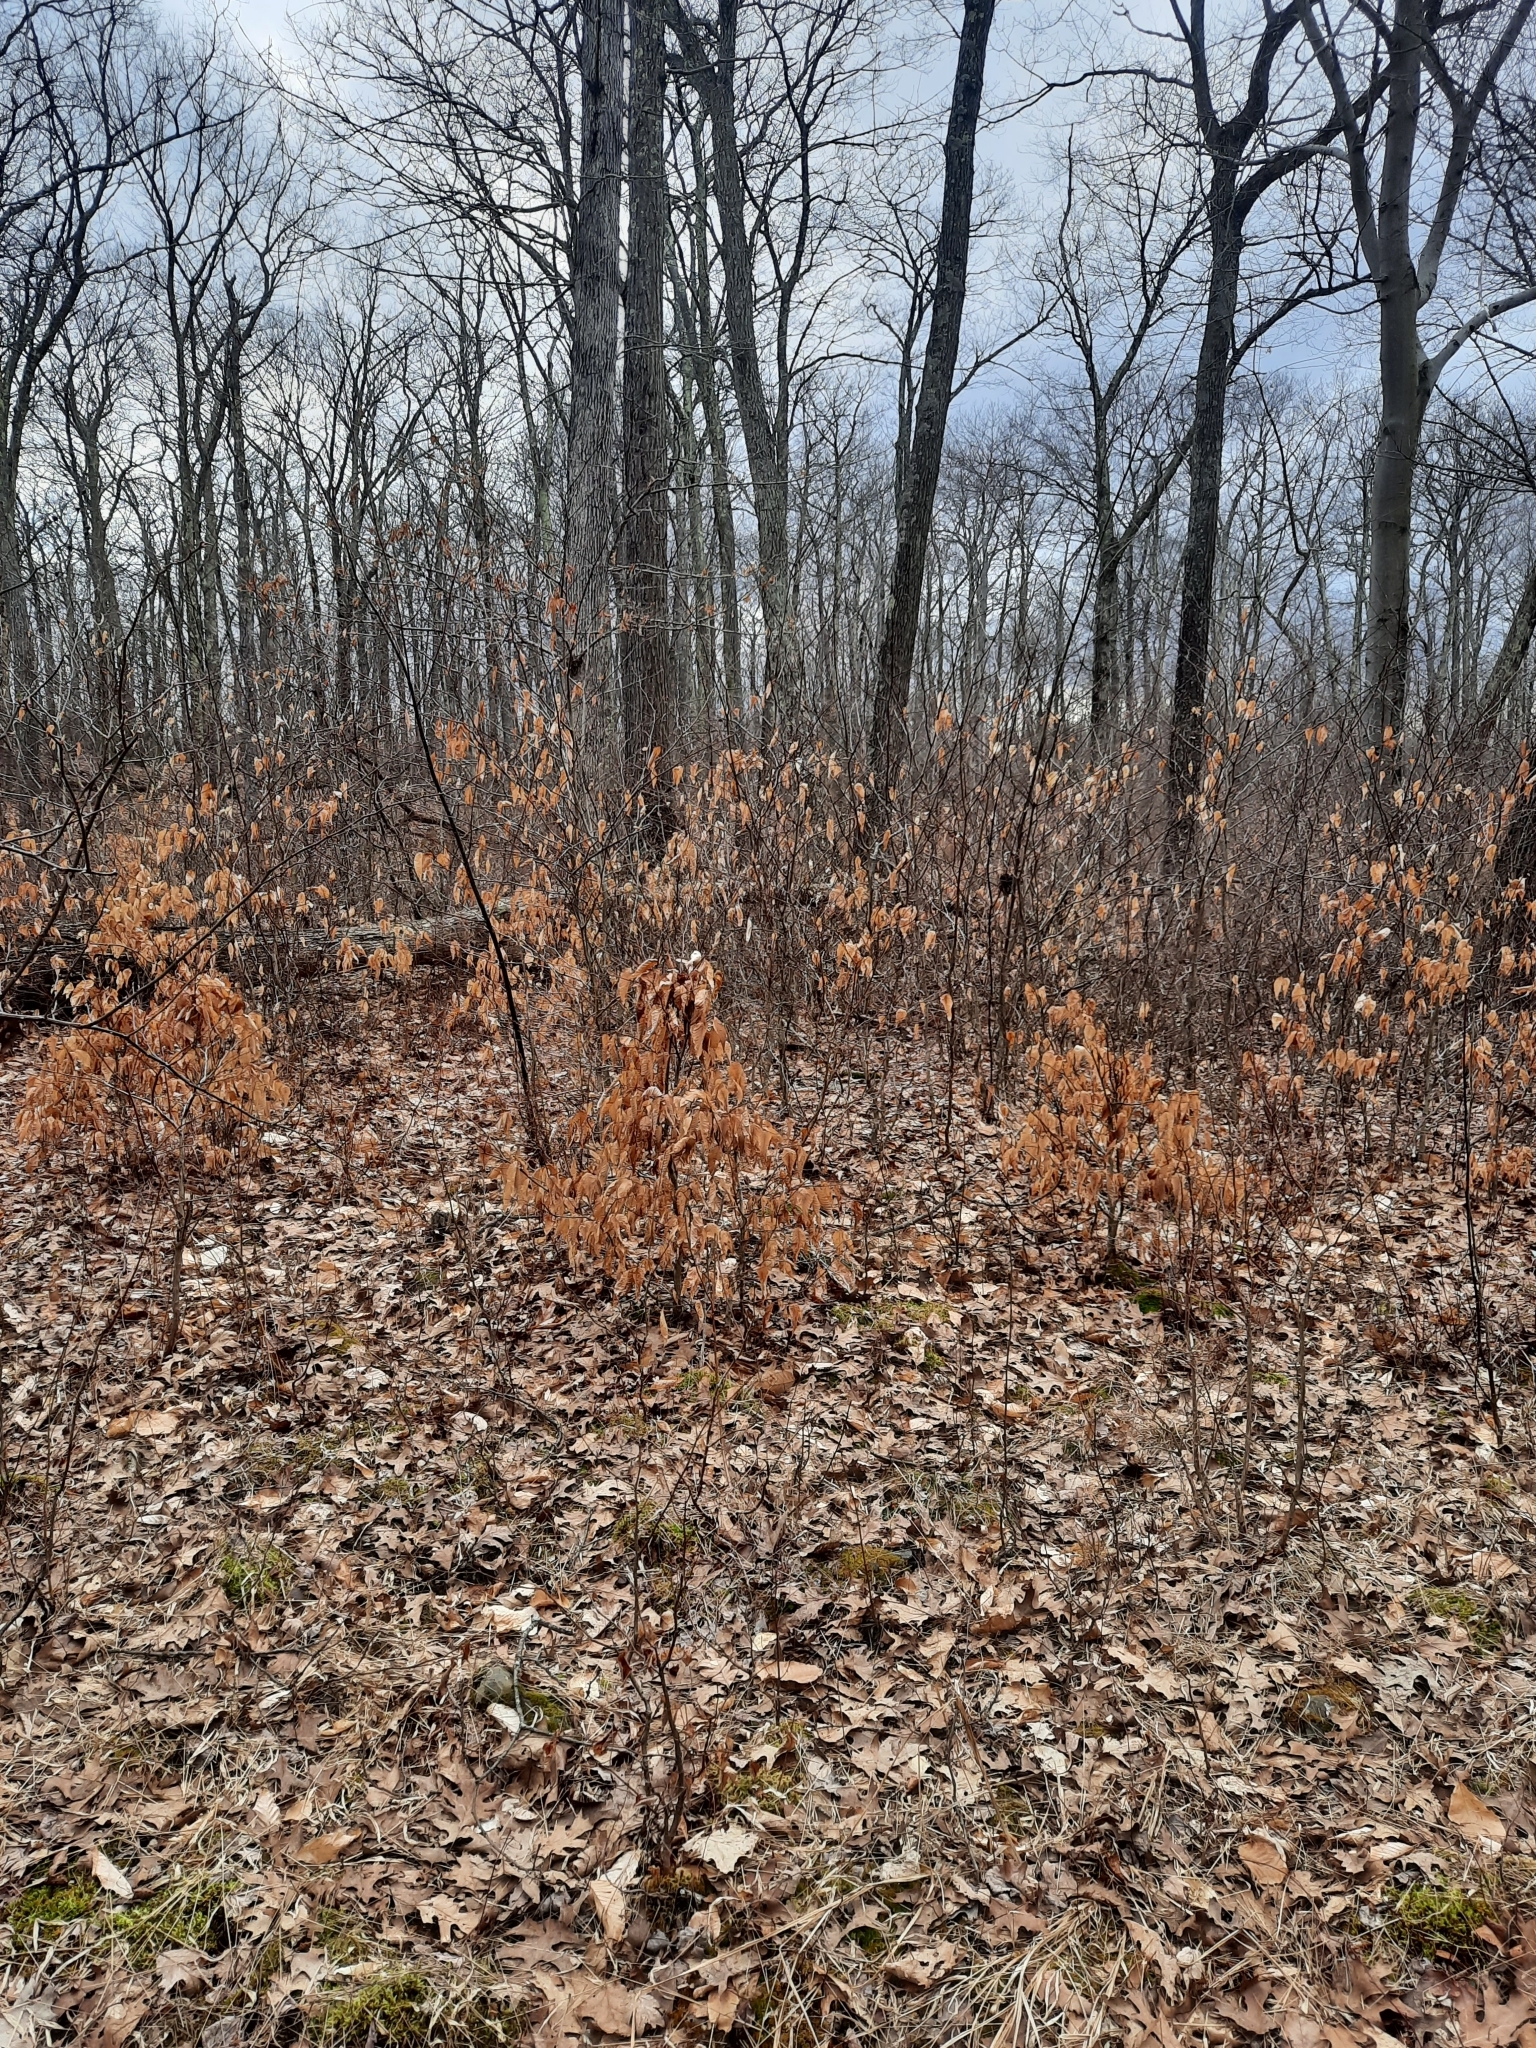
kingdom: Plantae
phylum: Tracheophyta
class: Magnoliopsida
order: Fagales
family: Fagaceae
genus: Fagus
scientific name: Fagus grandifolia
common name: American beech
